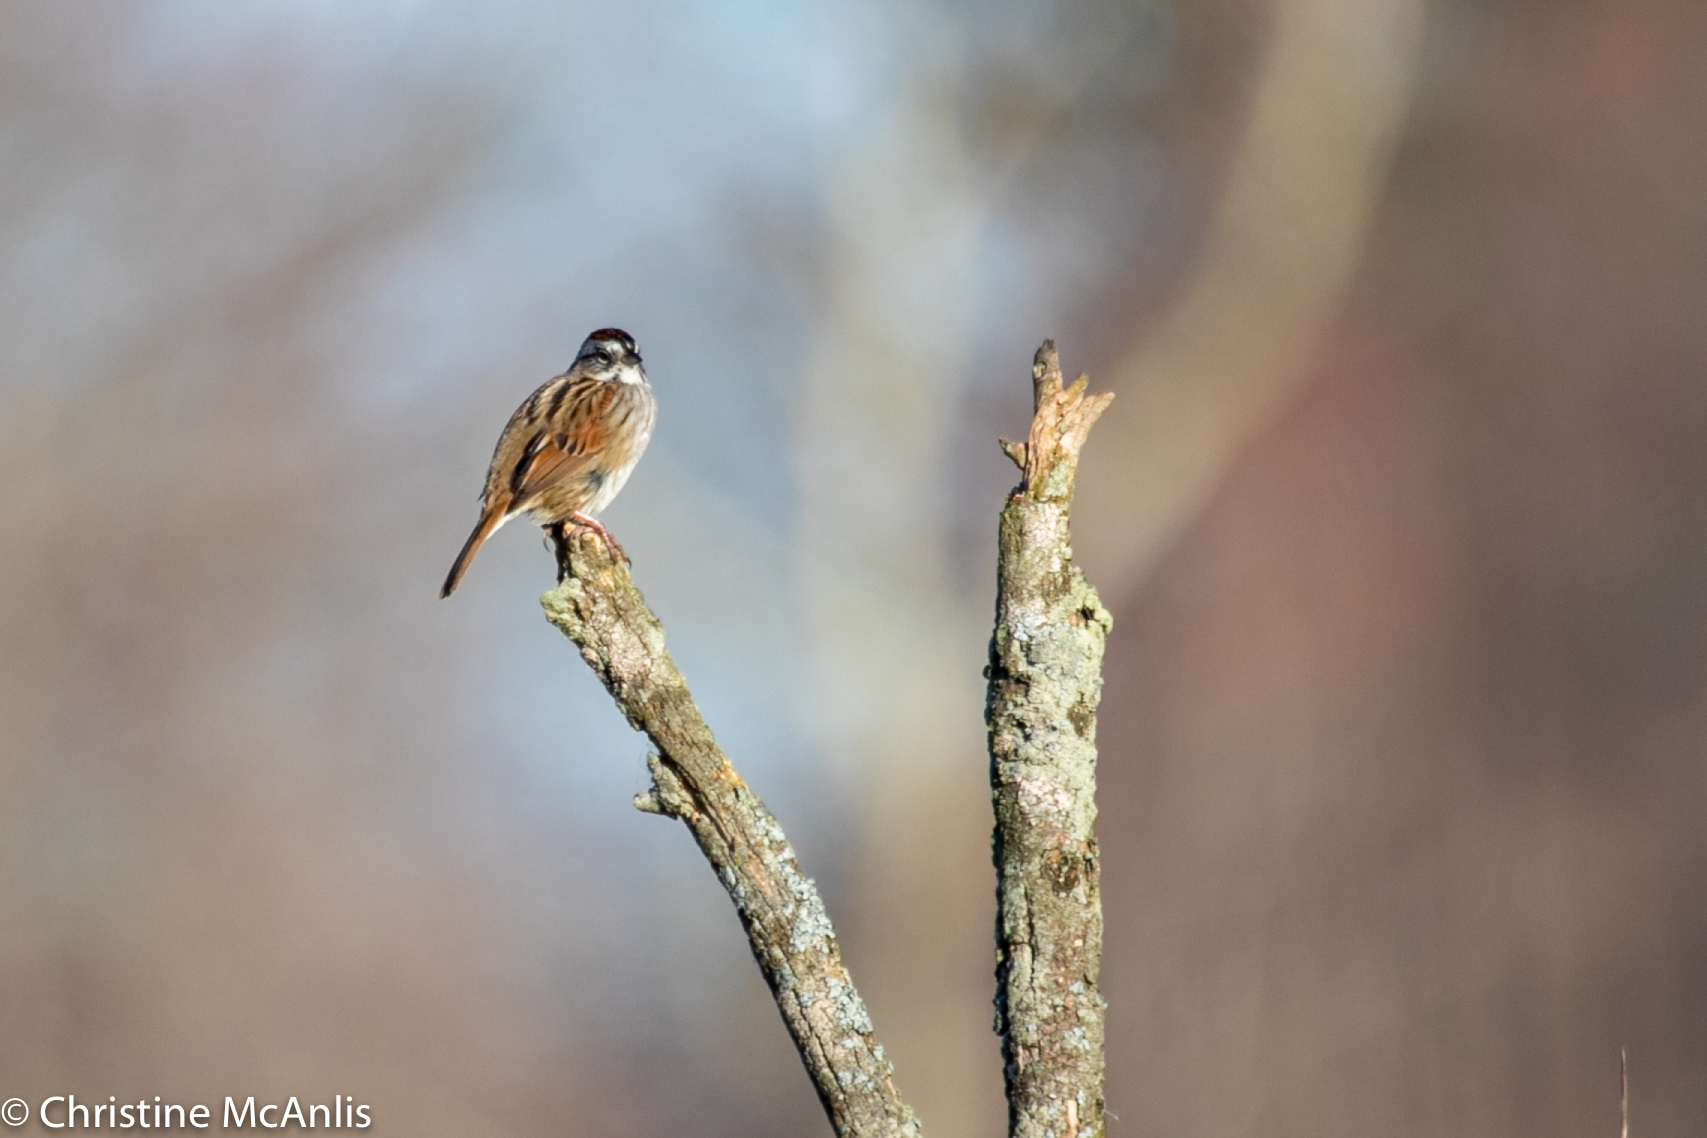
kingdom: Animalia
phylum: Chordata
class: Aves
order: Passeriformes
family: Passerellidae
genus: Melospiza
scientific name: Melospiza georgiana
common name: Swamp sparrow
